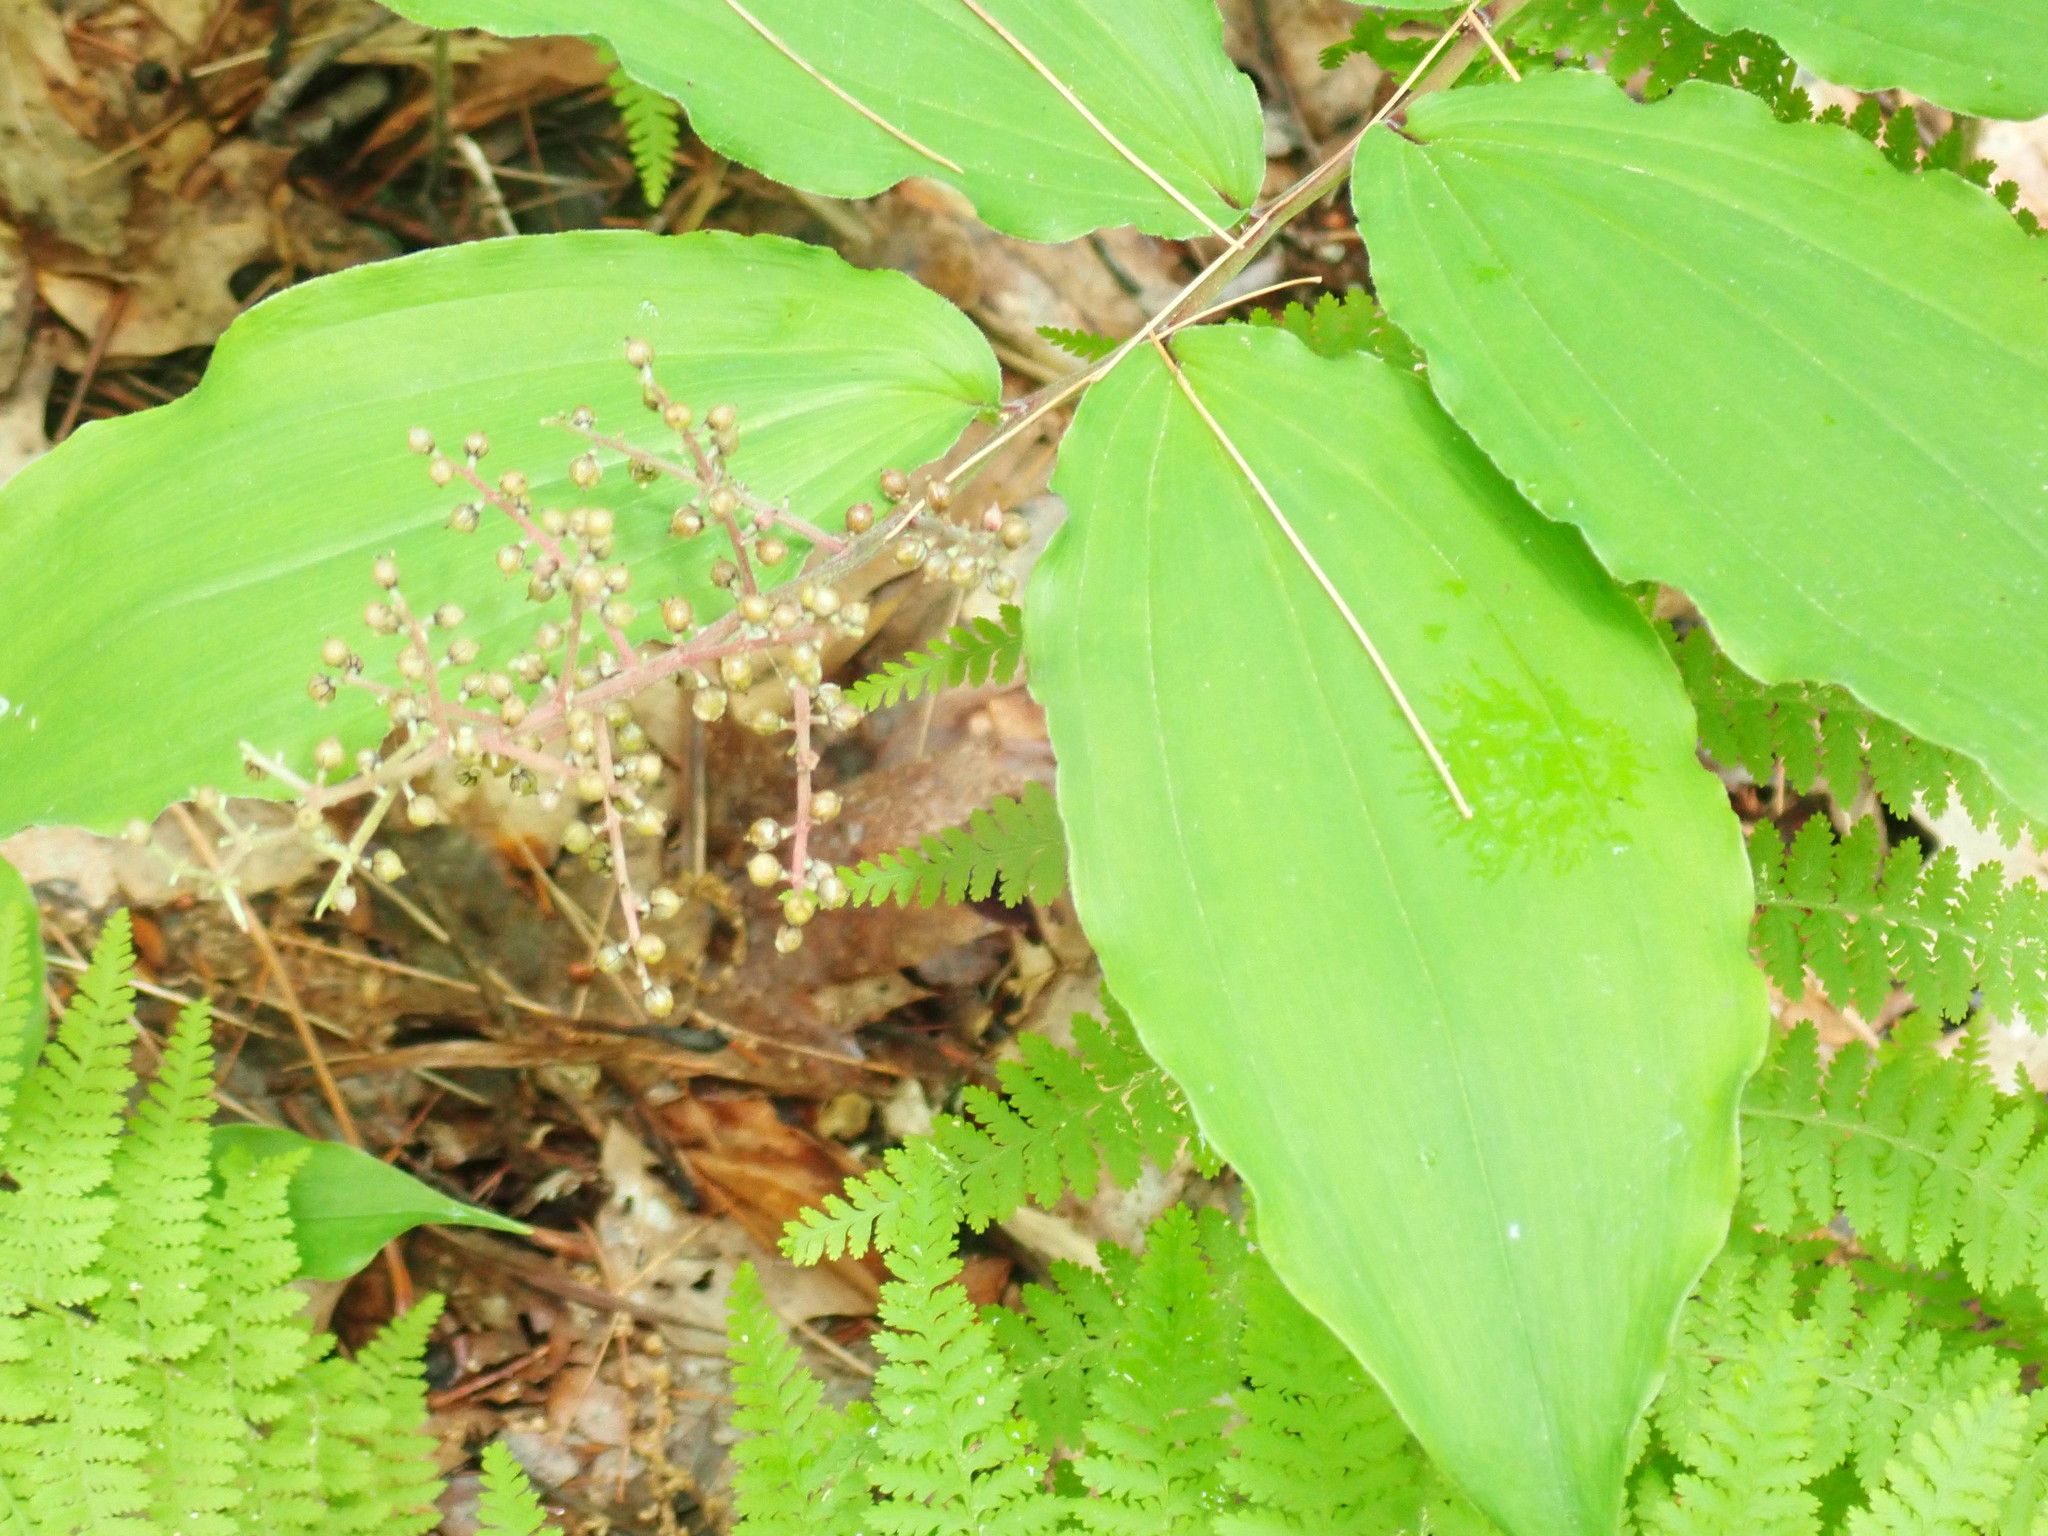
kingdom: Plantae
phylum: Tracheophyta
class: Liliopsida
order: Asparagales
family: Asparagaceae
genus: Maianthemum
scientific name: Maianthemum racemosum
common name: False spikenard
